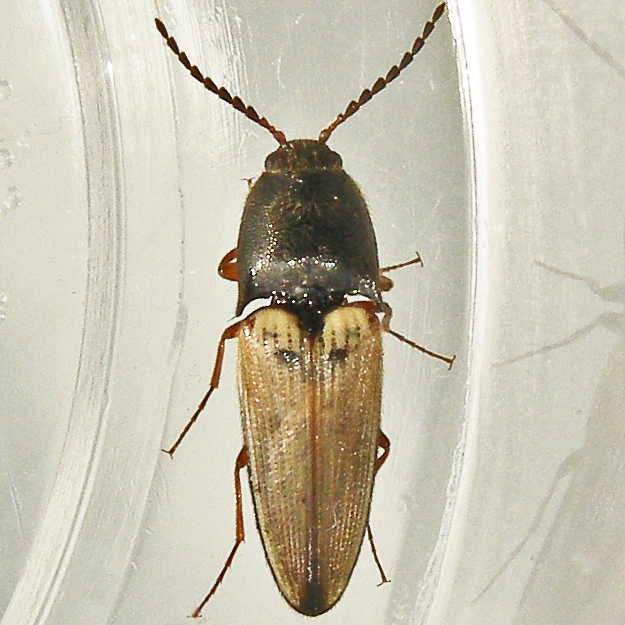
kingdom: Animalia
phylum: Arthropoda
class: Insecta
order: Coleoptera
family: Elateridae
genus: Ampedus
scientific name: Ampedus nigricollis
